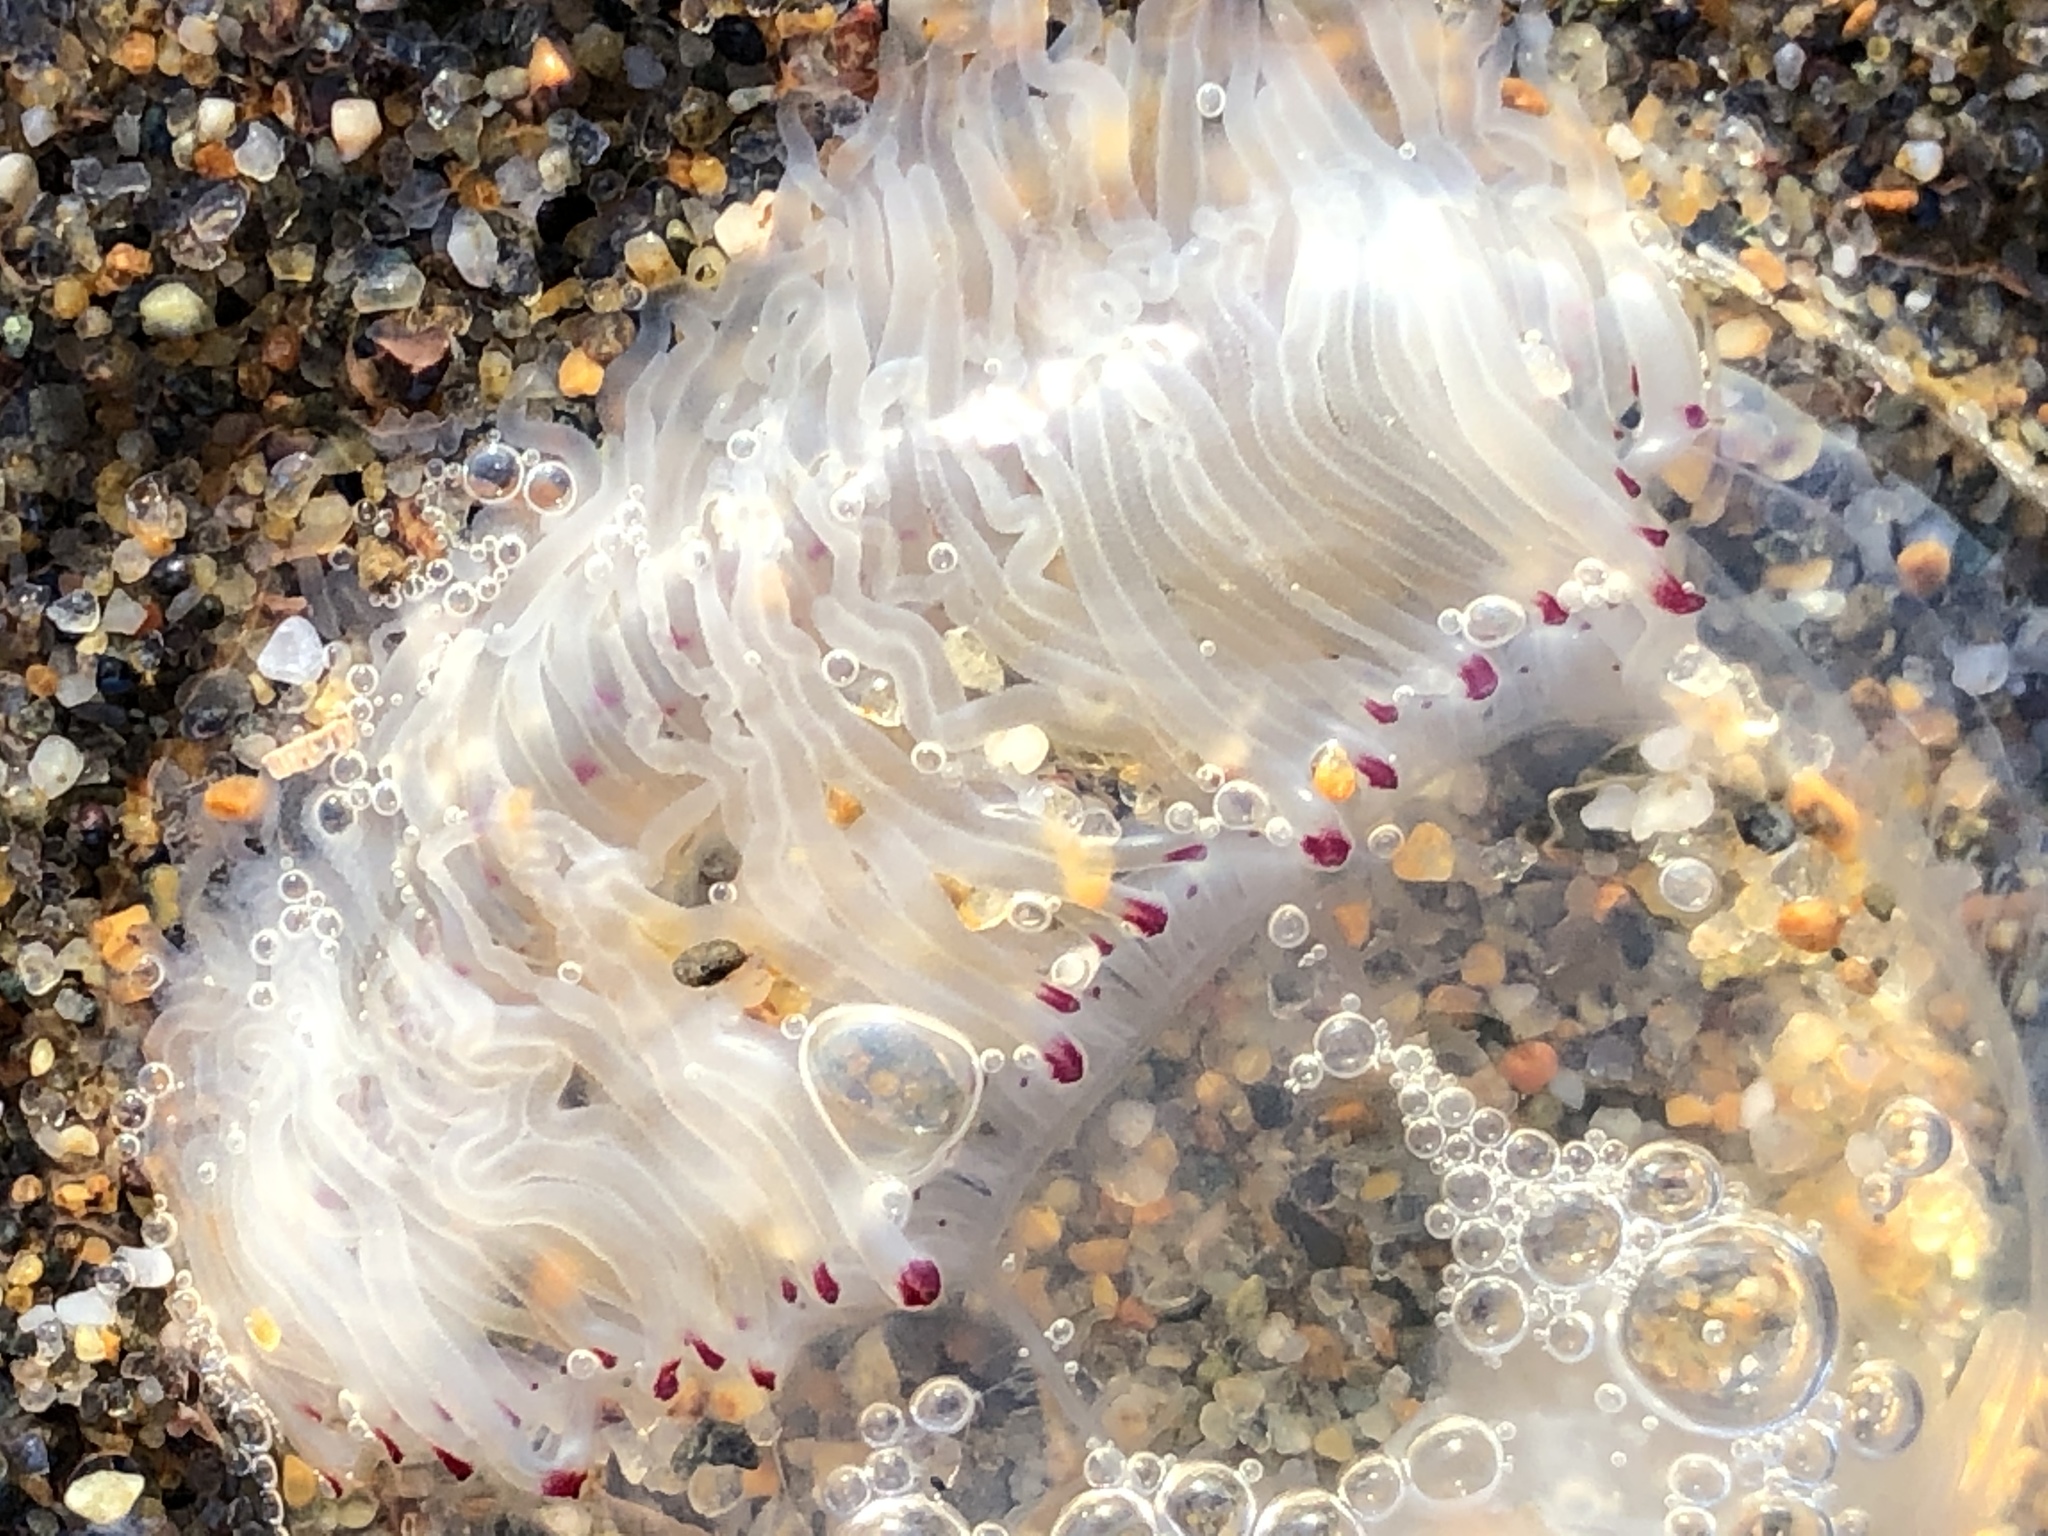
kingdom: Animalia
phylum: Cnidaria
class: Hydrozoa
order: Anthoathecata
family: Corynidae
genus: Polyorchis
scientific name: Polyorchis penicillatus
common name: Penicillate jellyfish
